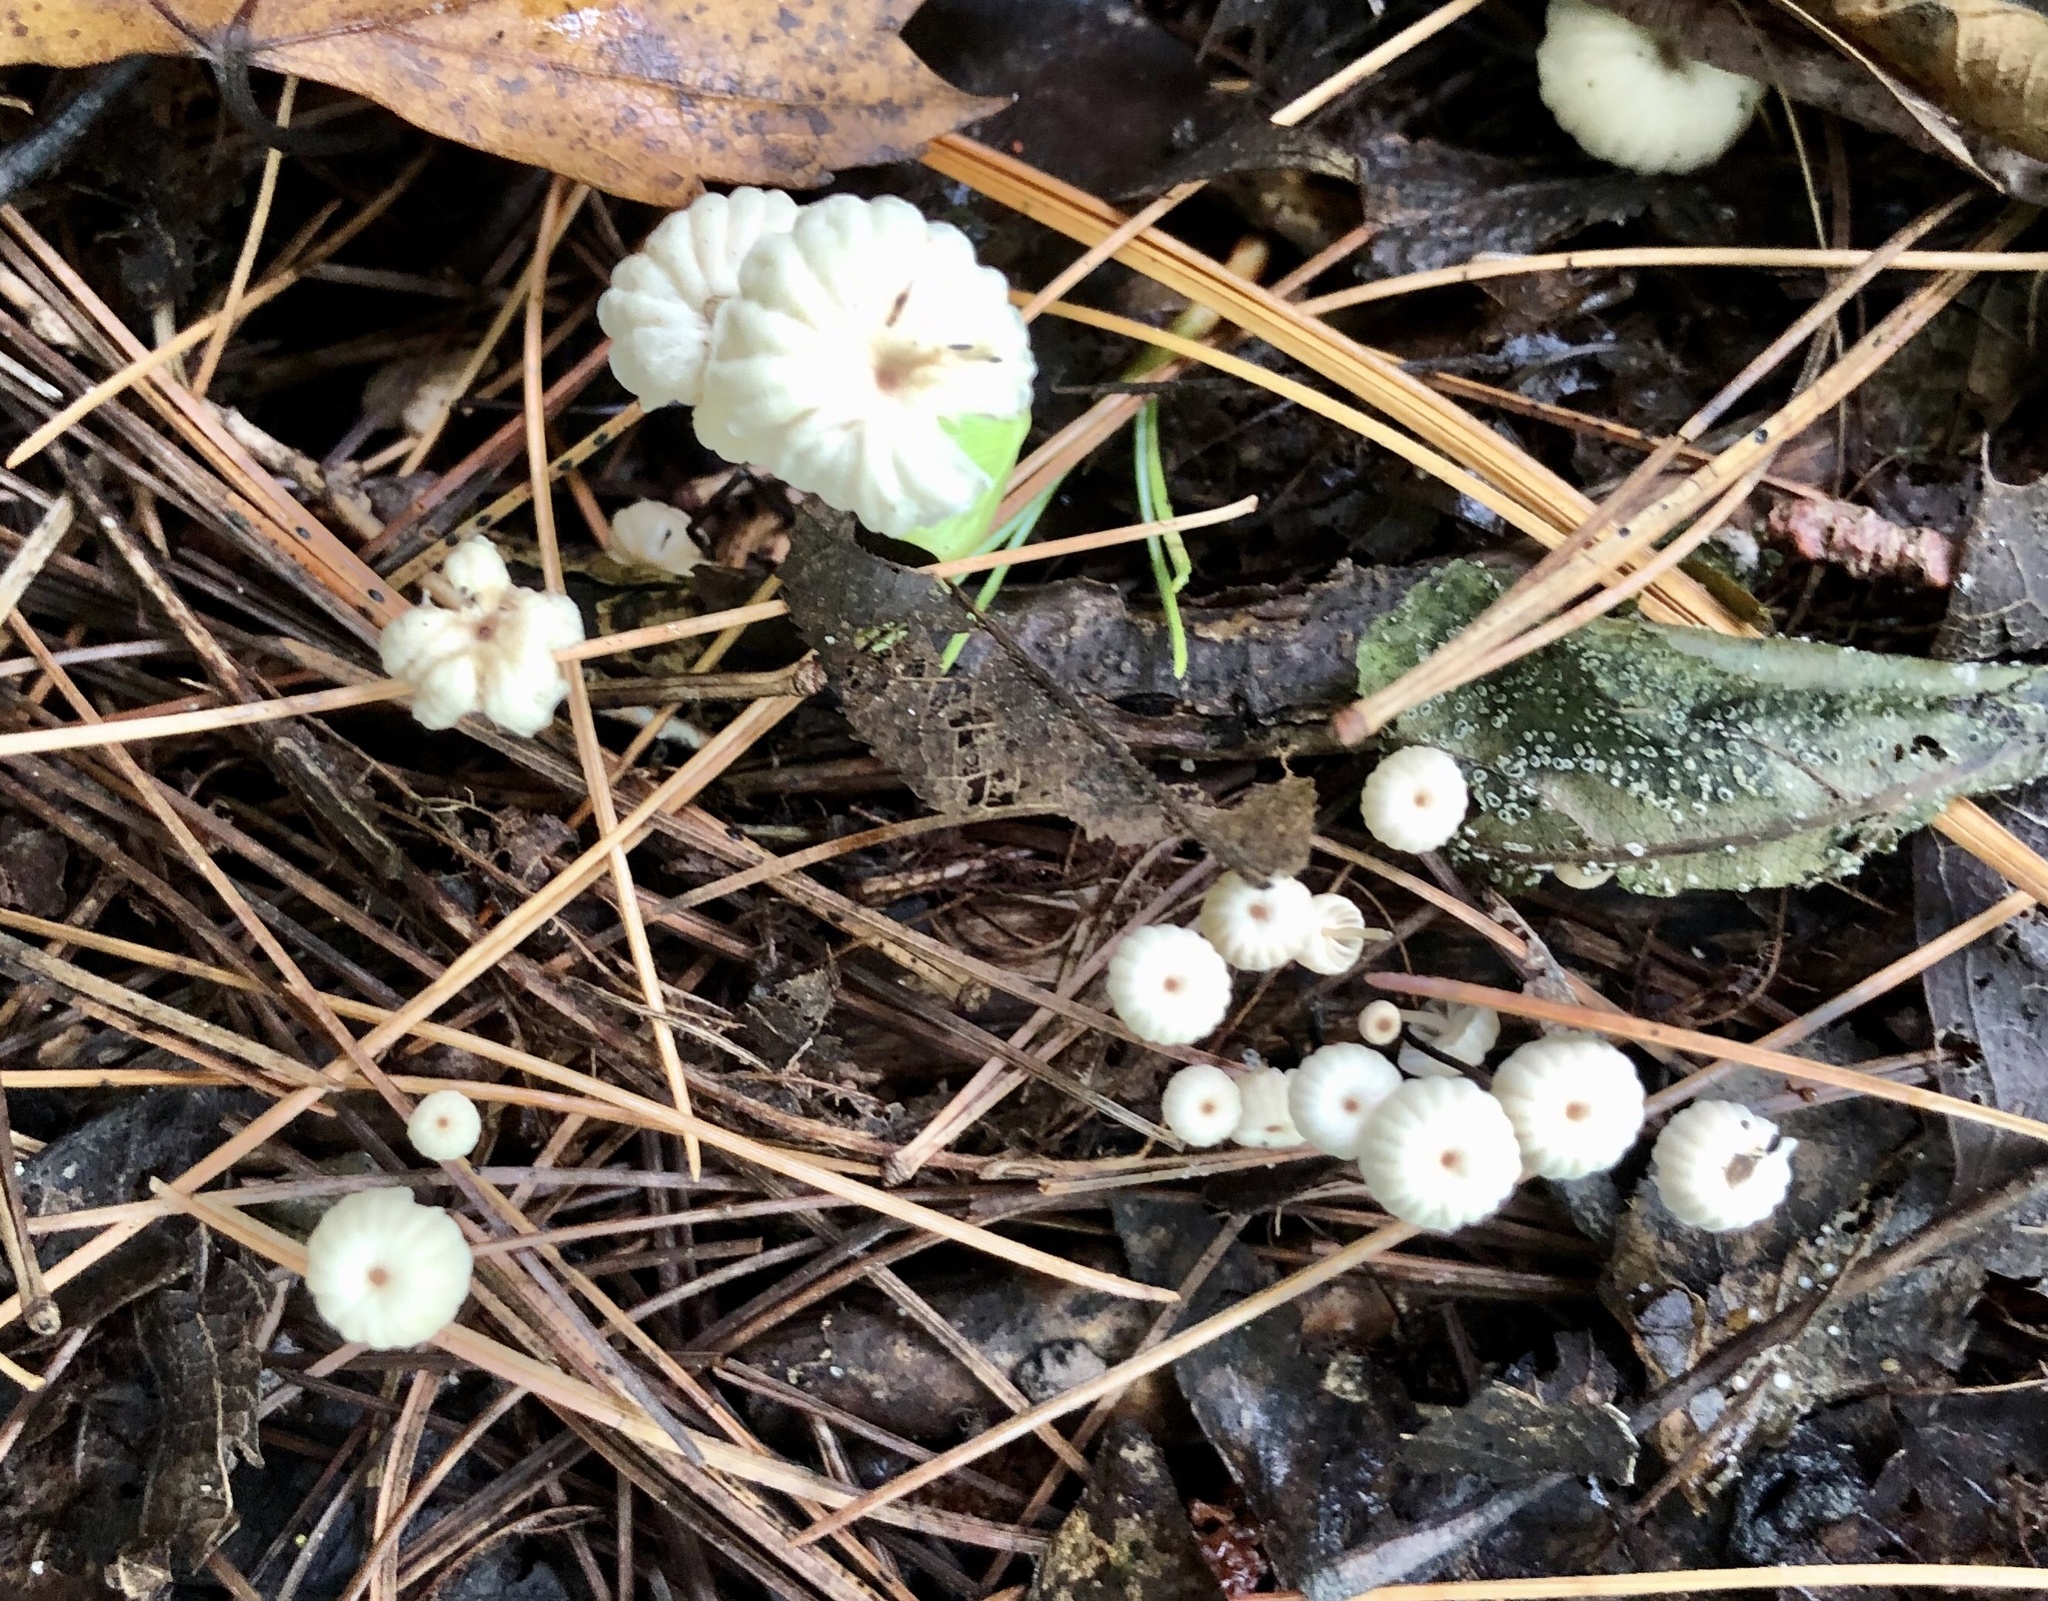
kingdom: Fungi
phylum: Basidiomycota
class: Agaricomycetes
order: Agaricales
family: Marasmiaceae
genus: Marasmius
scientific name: Marasmius rotula
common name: Collared parachute
